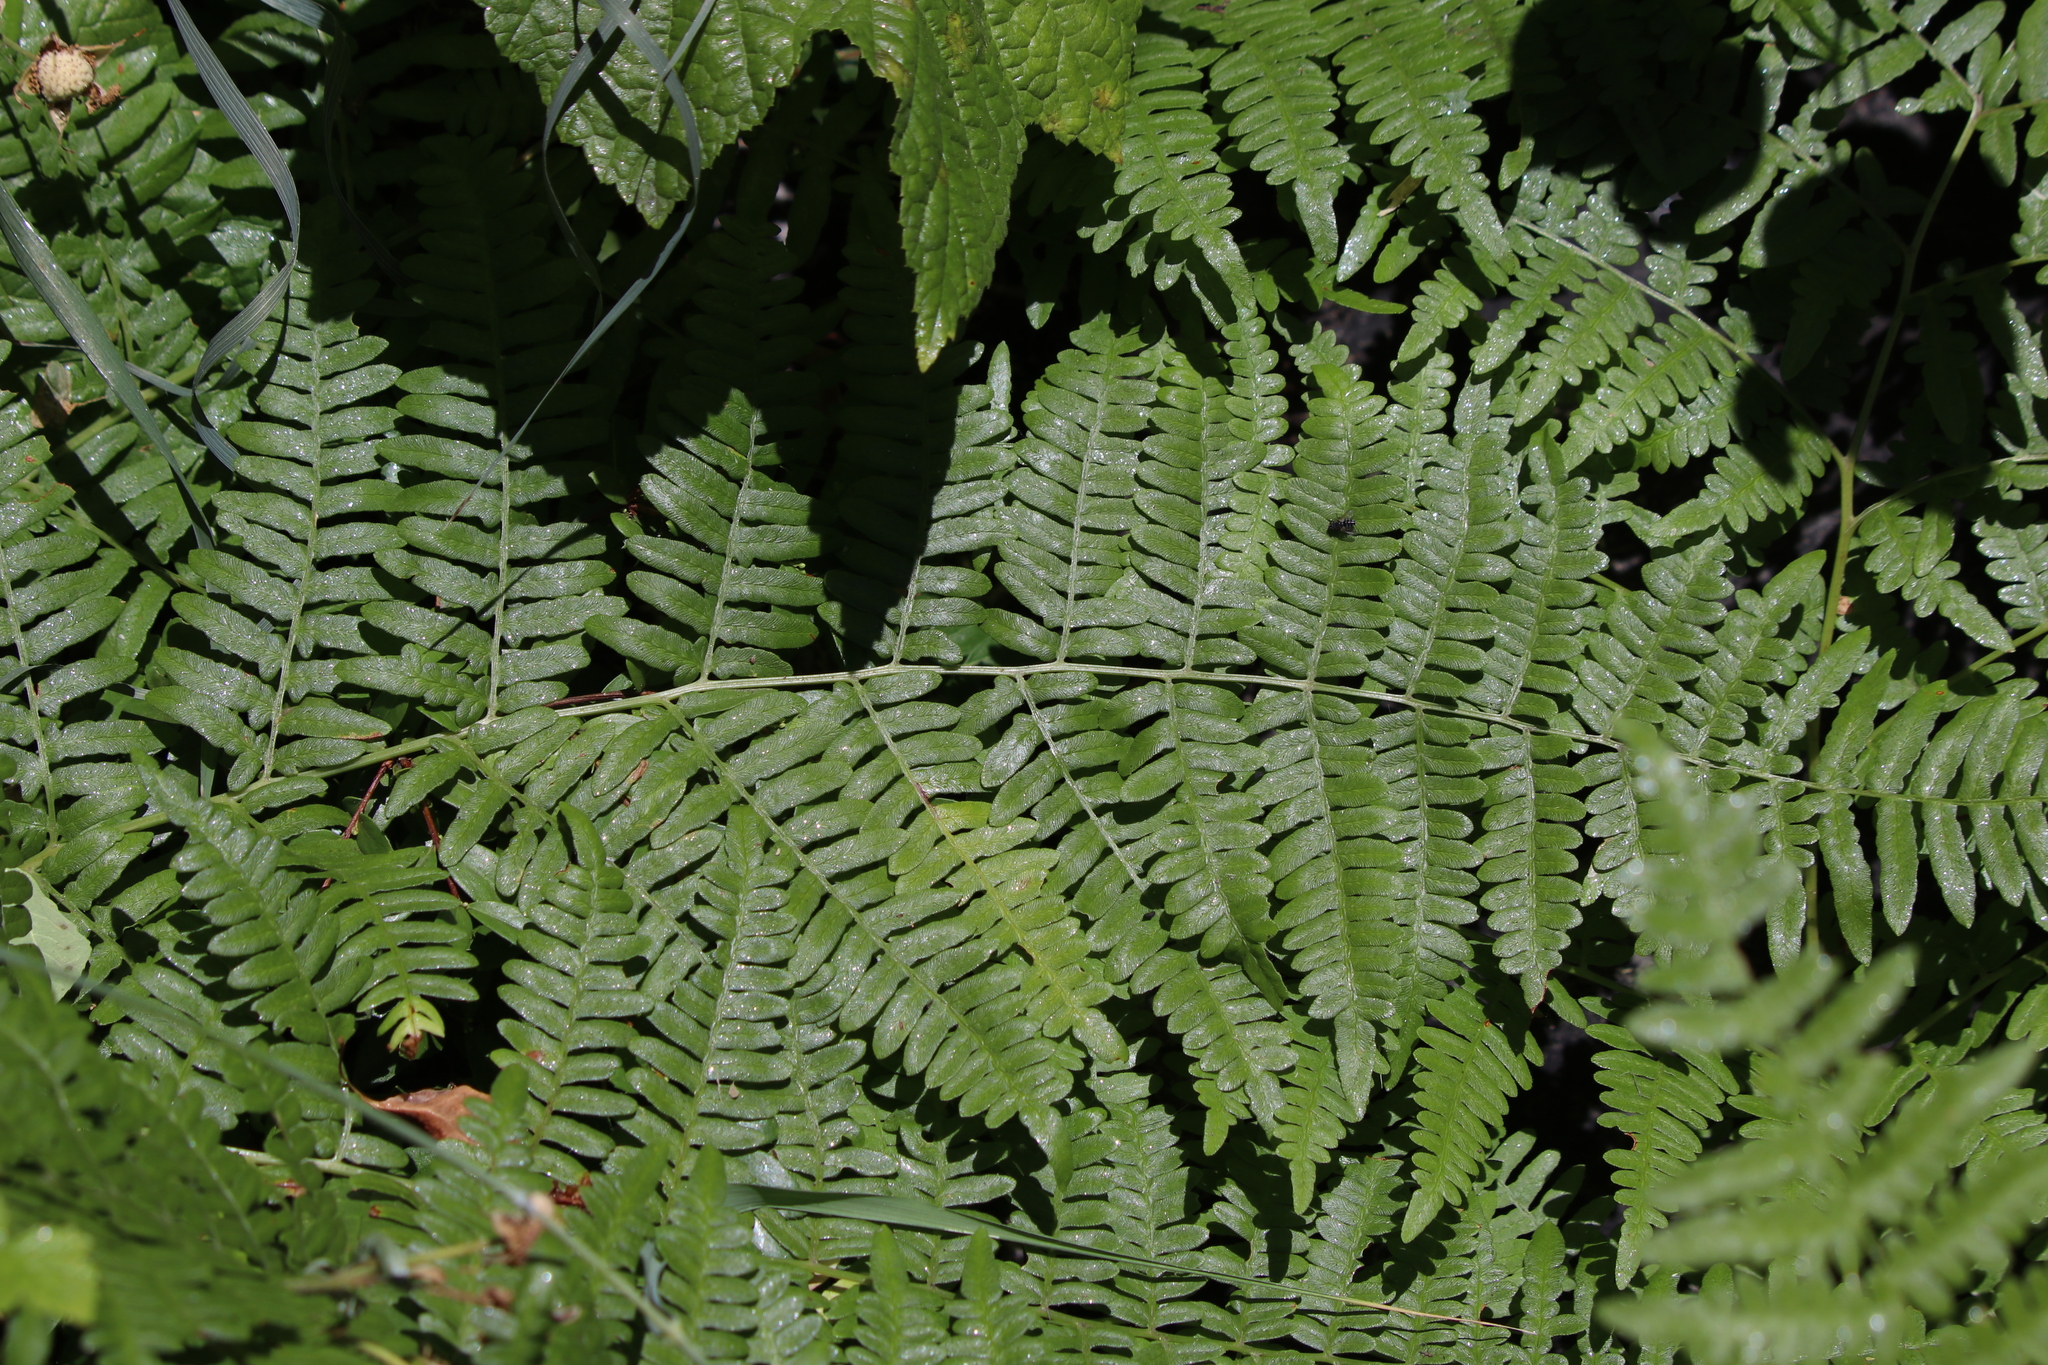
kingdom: Plantae
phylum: Tracheophyta
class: Polypodiopsida
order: Polypodiales
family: Dennstaedtiaceae
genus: Pteridium
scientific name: Pteridium aquilinum
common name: Bracken
